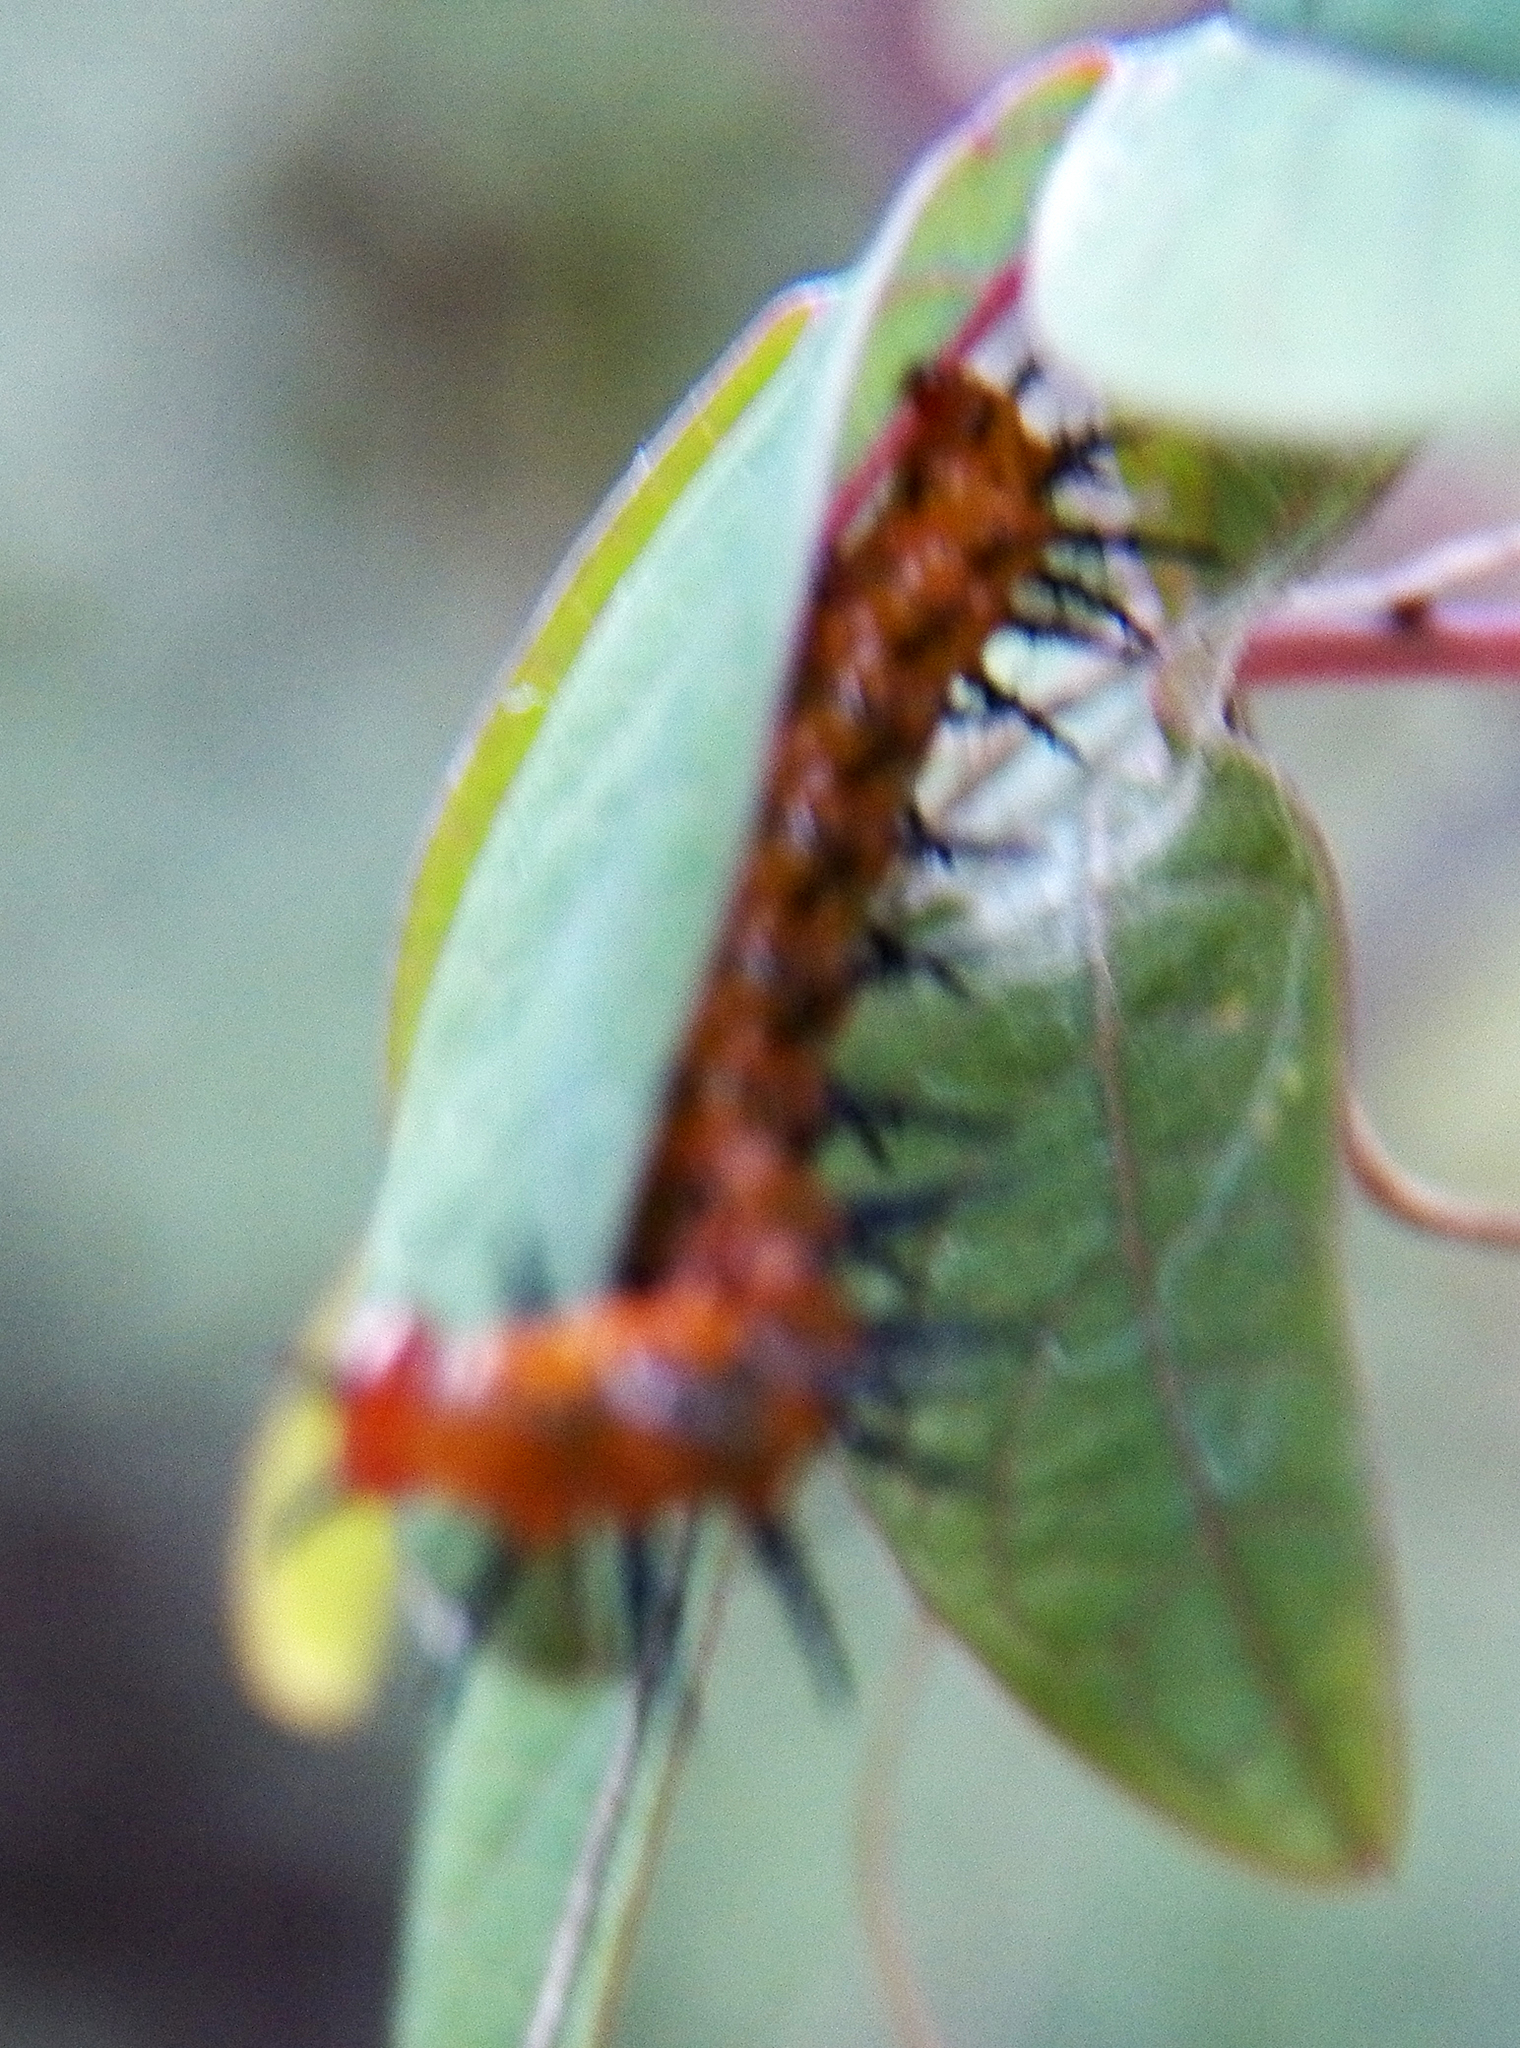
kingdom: Animalia
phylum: Arthropoda
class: Insecta
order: Lepidoptera
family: Nymphalidae
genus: Dione
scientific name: Dione vanillae
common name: Gulf fritillary
